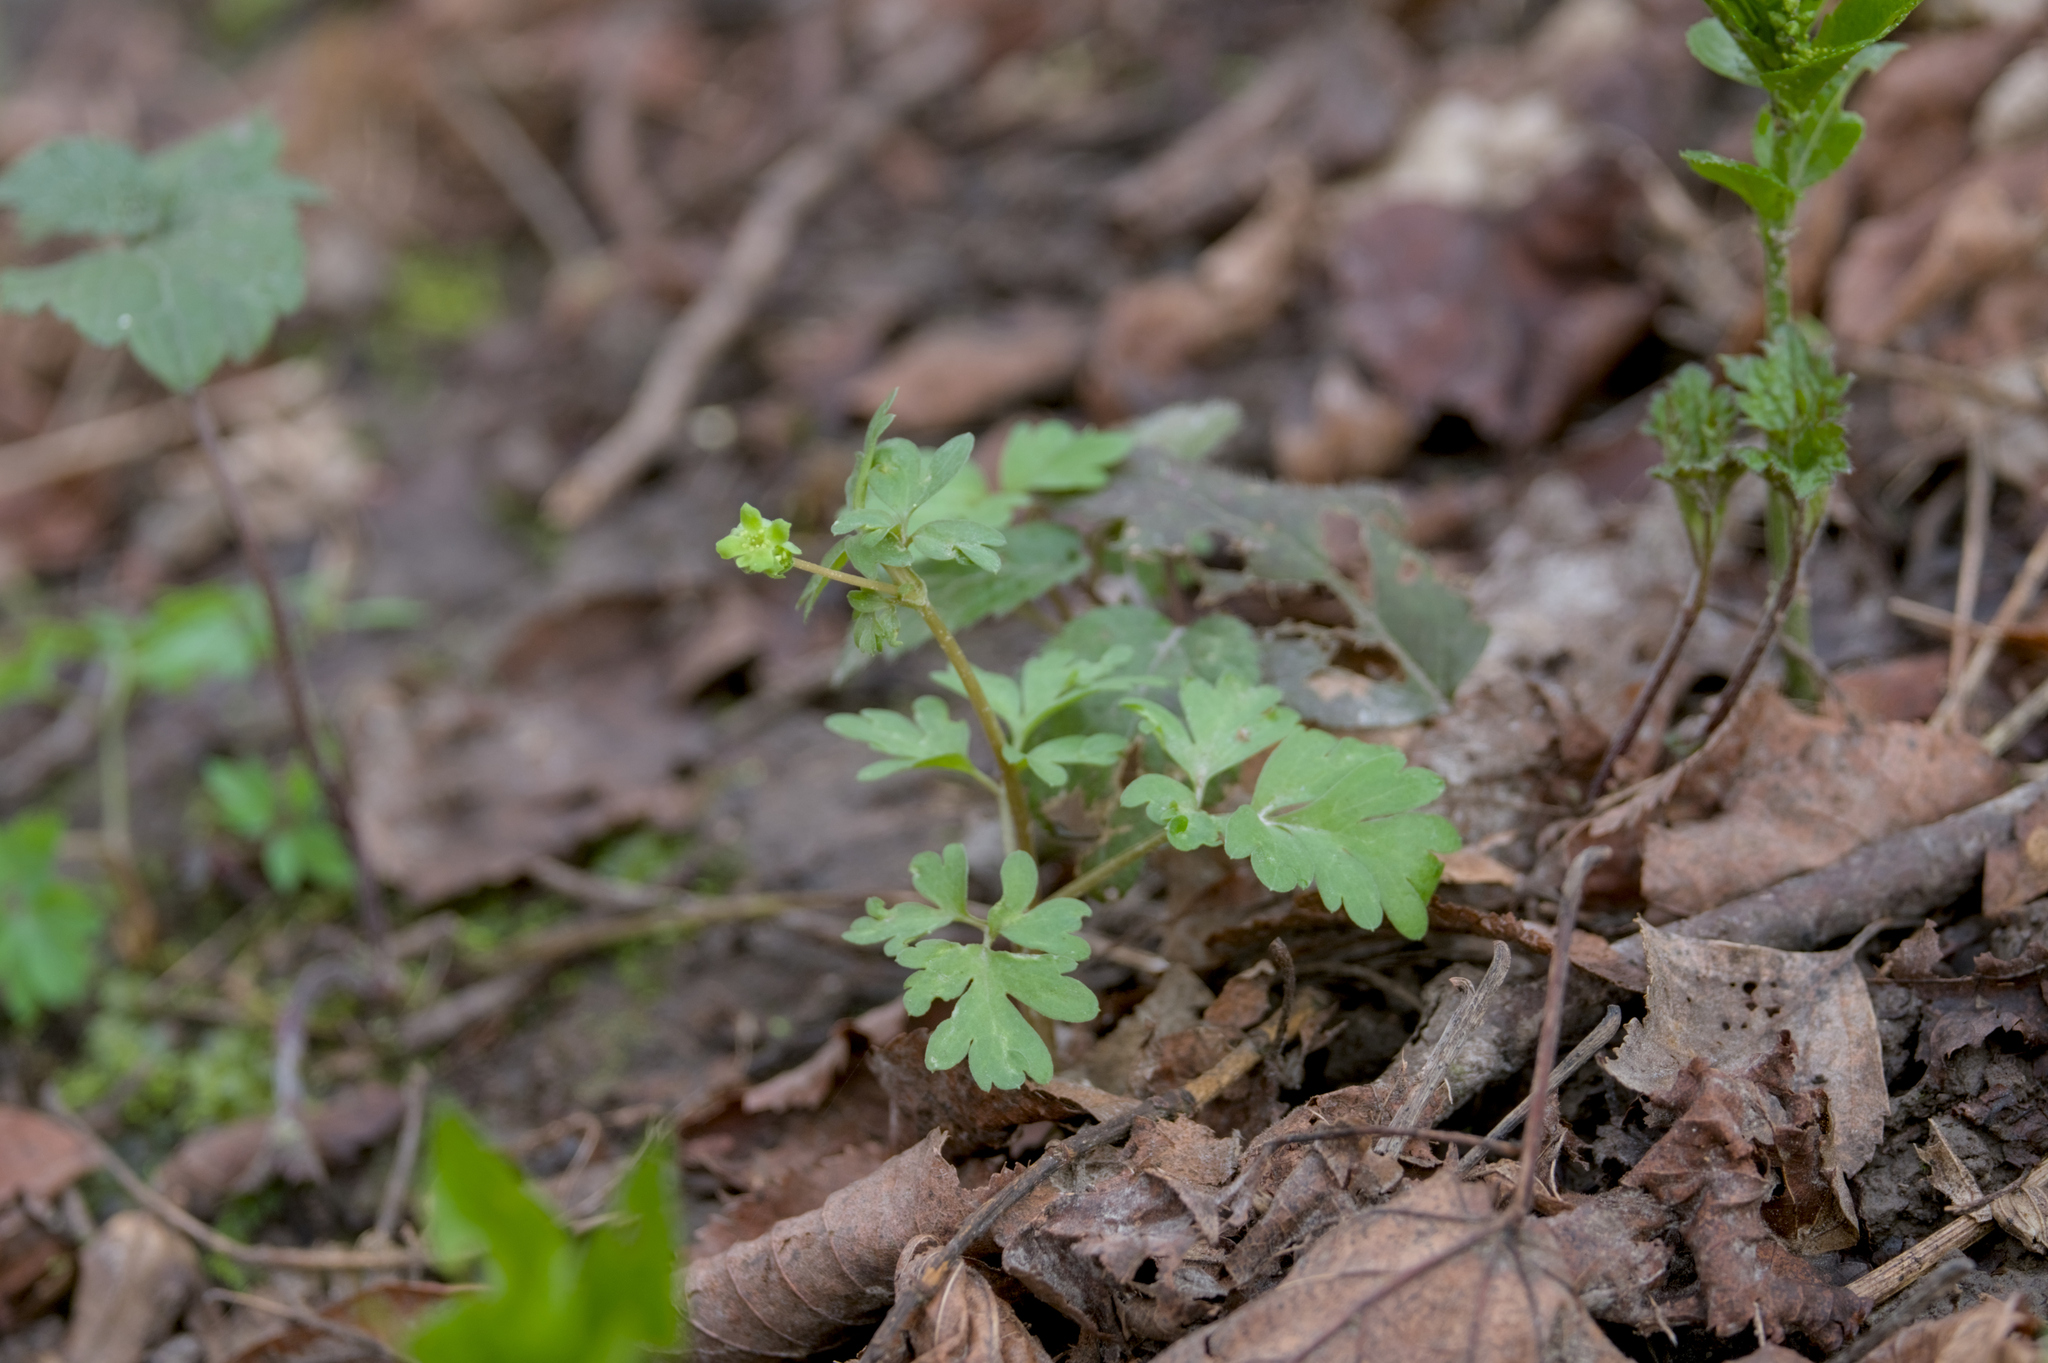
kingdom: Plantae
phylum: Tracheophyta
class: Magnoliopsida
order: Dipsacales
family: Viburnaceae
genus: Adoxa
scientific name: Adoxa moschatellina
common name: Moschatel
